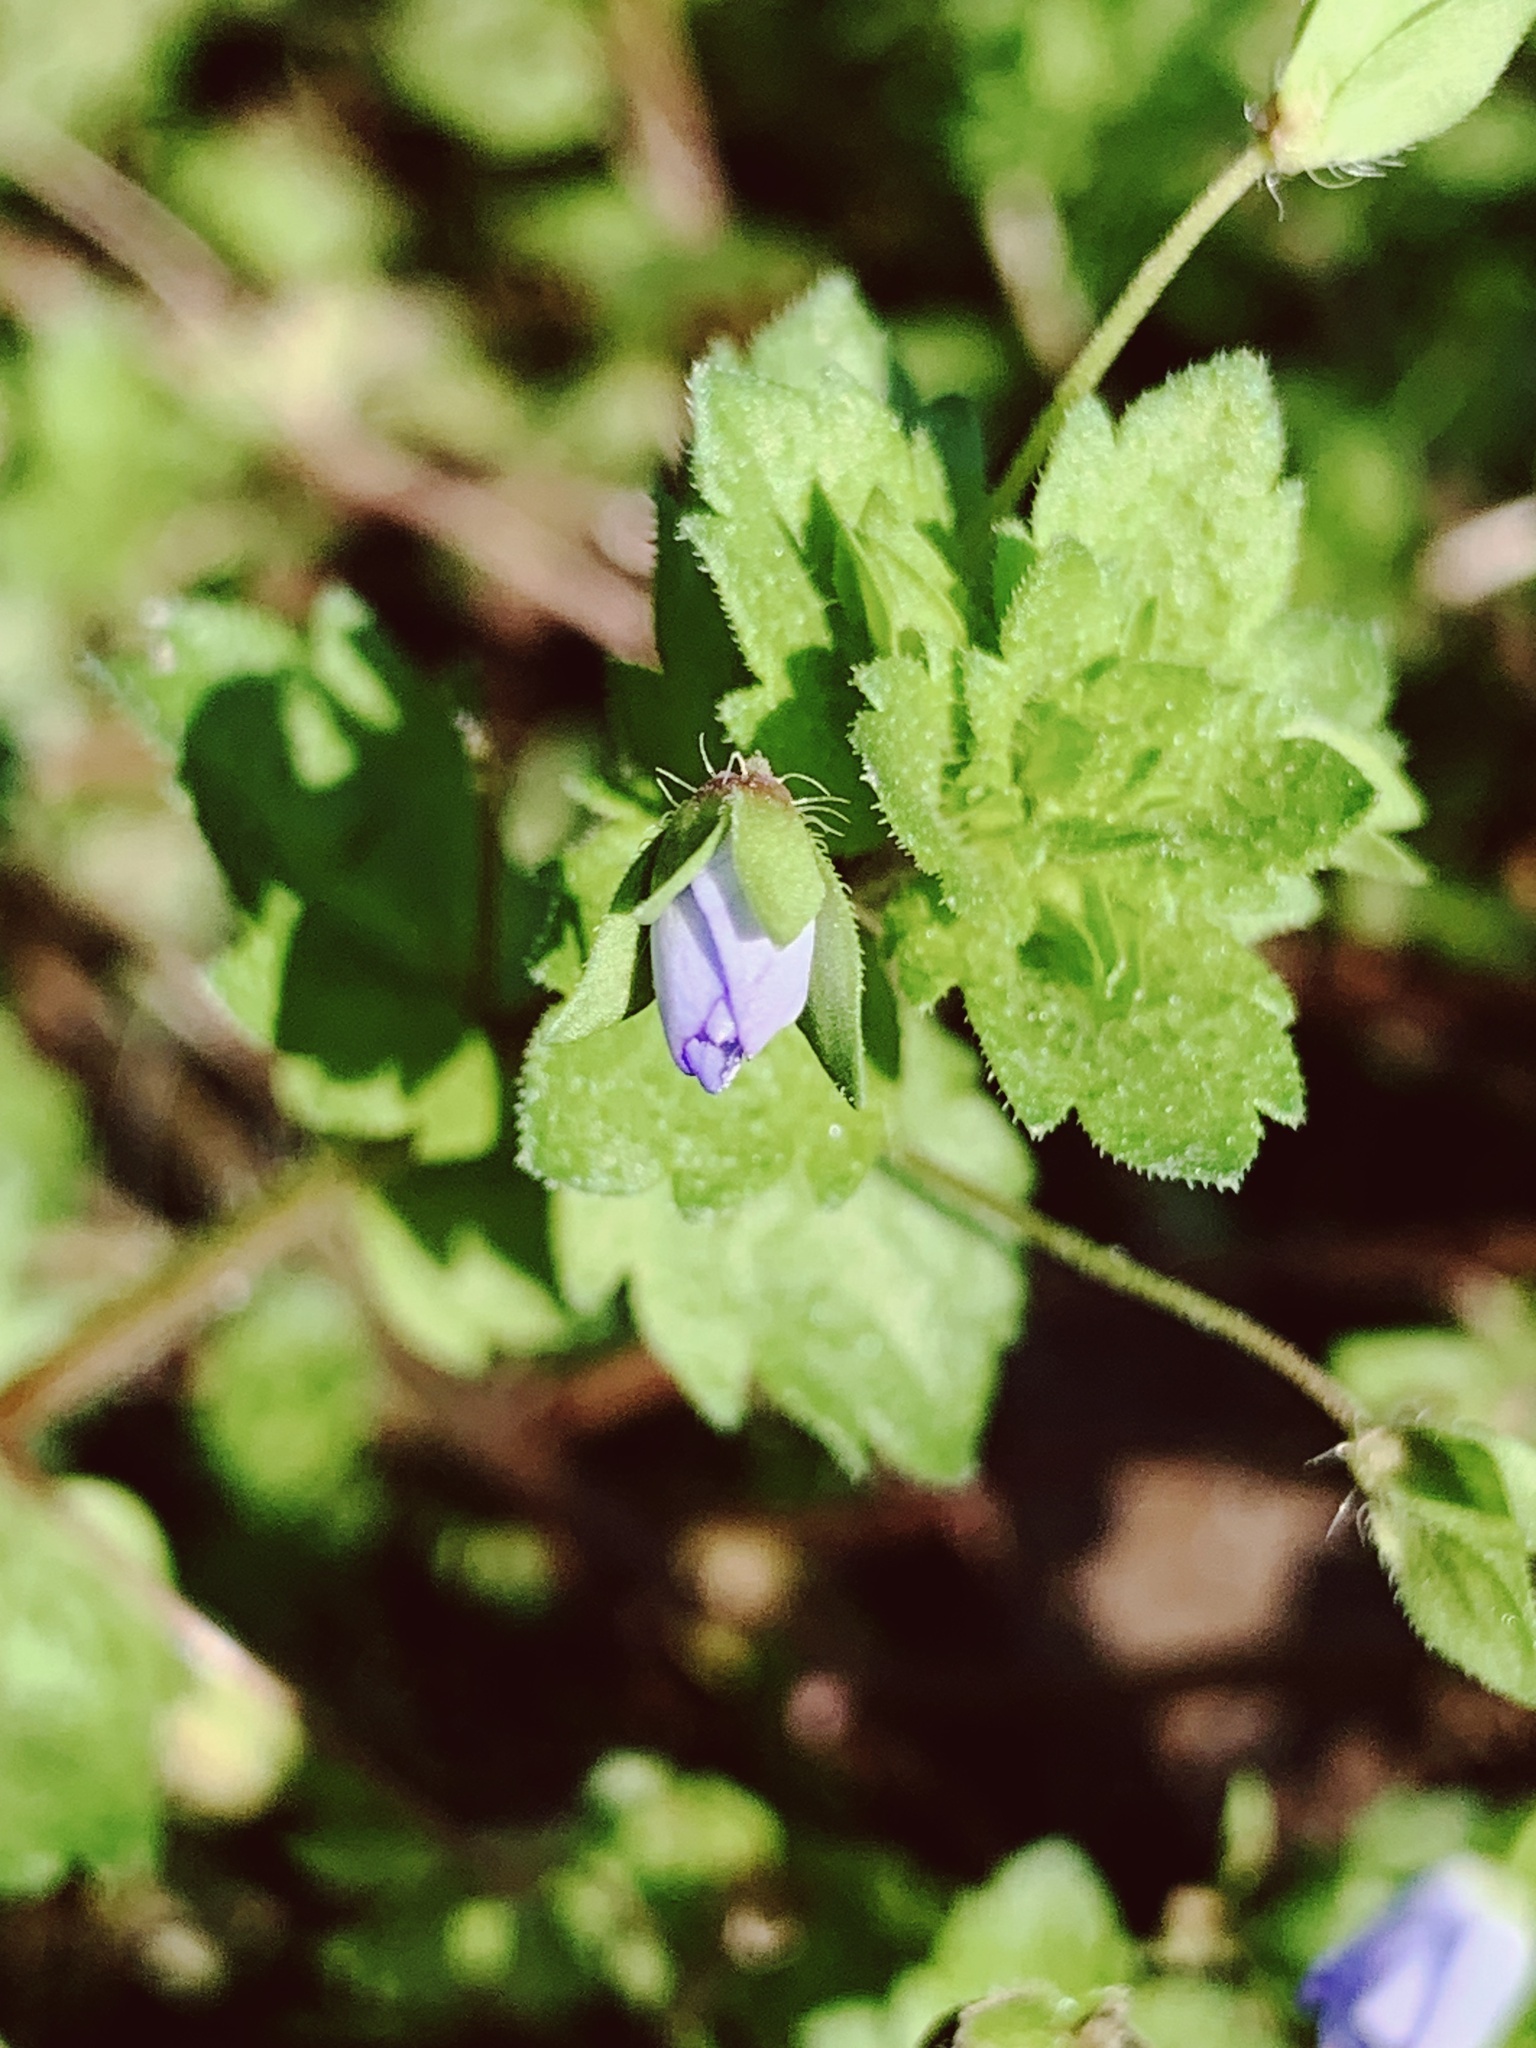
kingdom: Plantae
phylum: Tracheophyta
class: Magnoliopsida
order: Lamiales
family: Plantaginaceae
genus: Veronica
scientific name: Veronica persica
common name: Common field-speedwell
